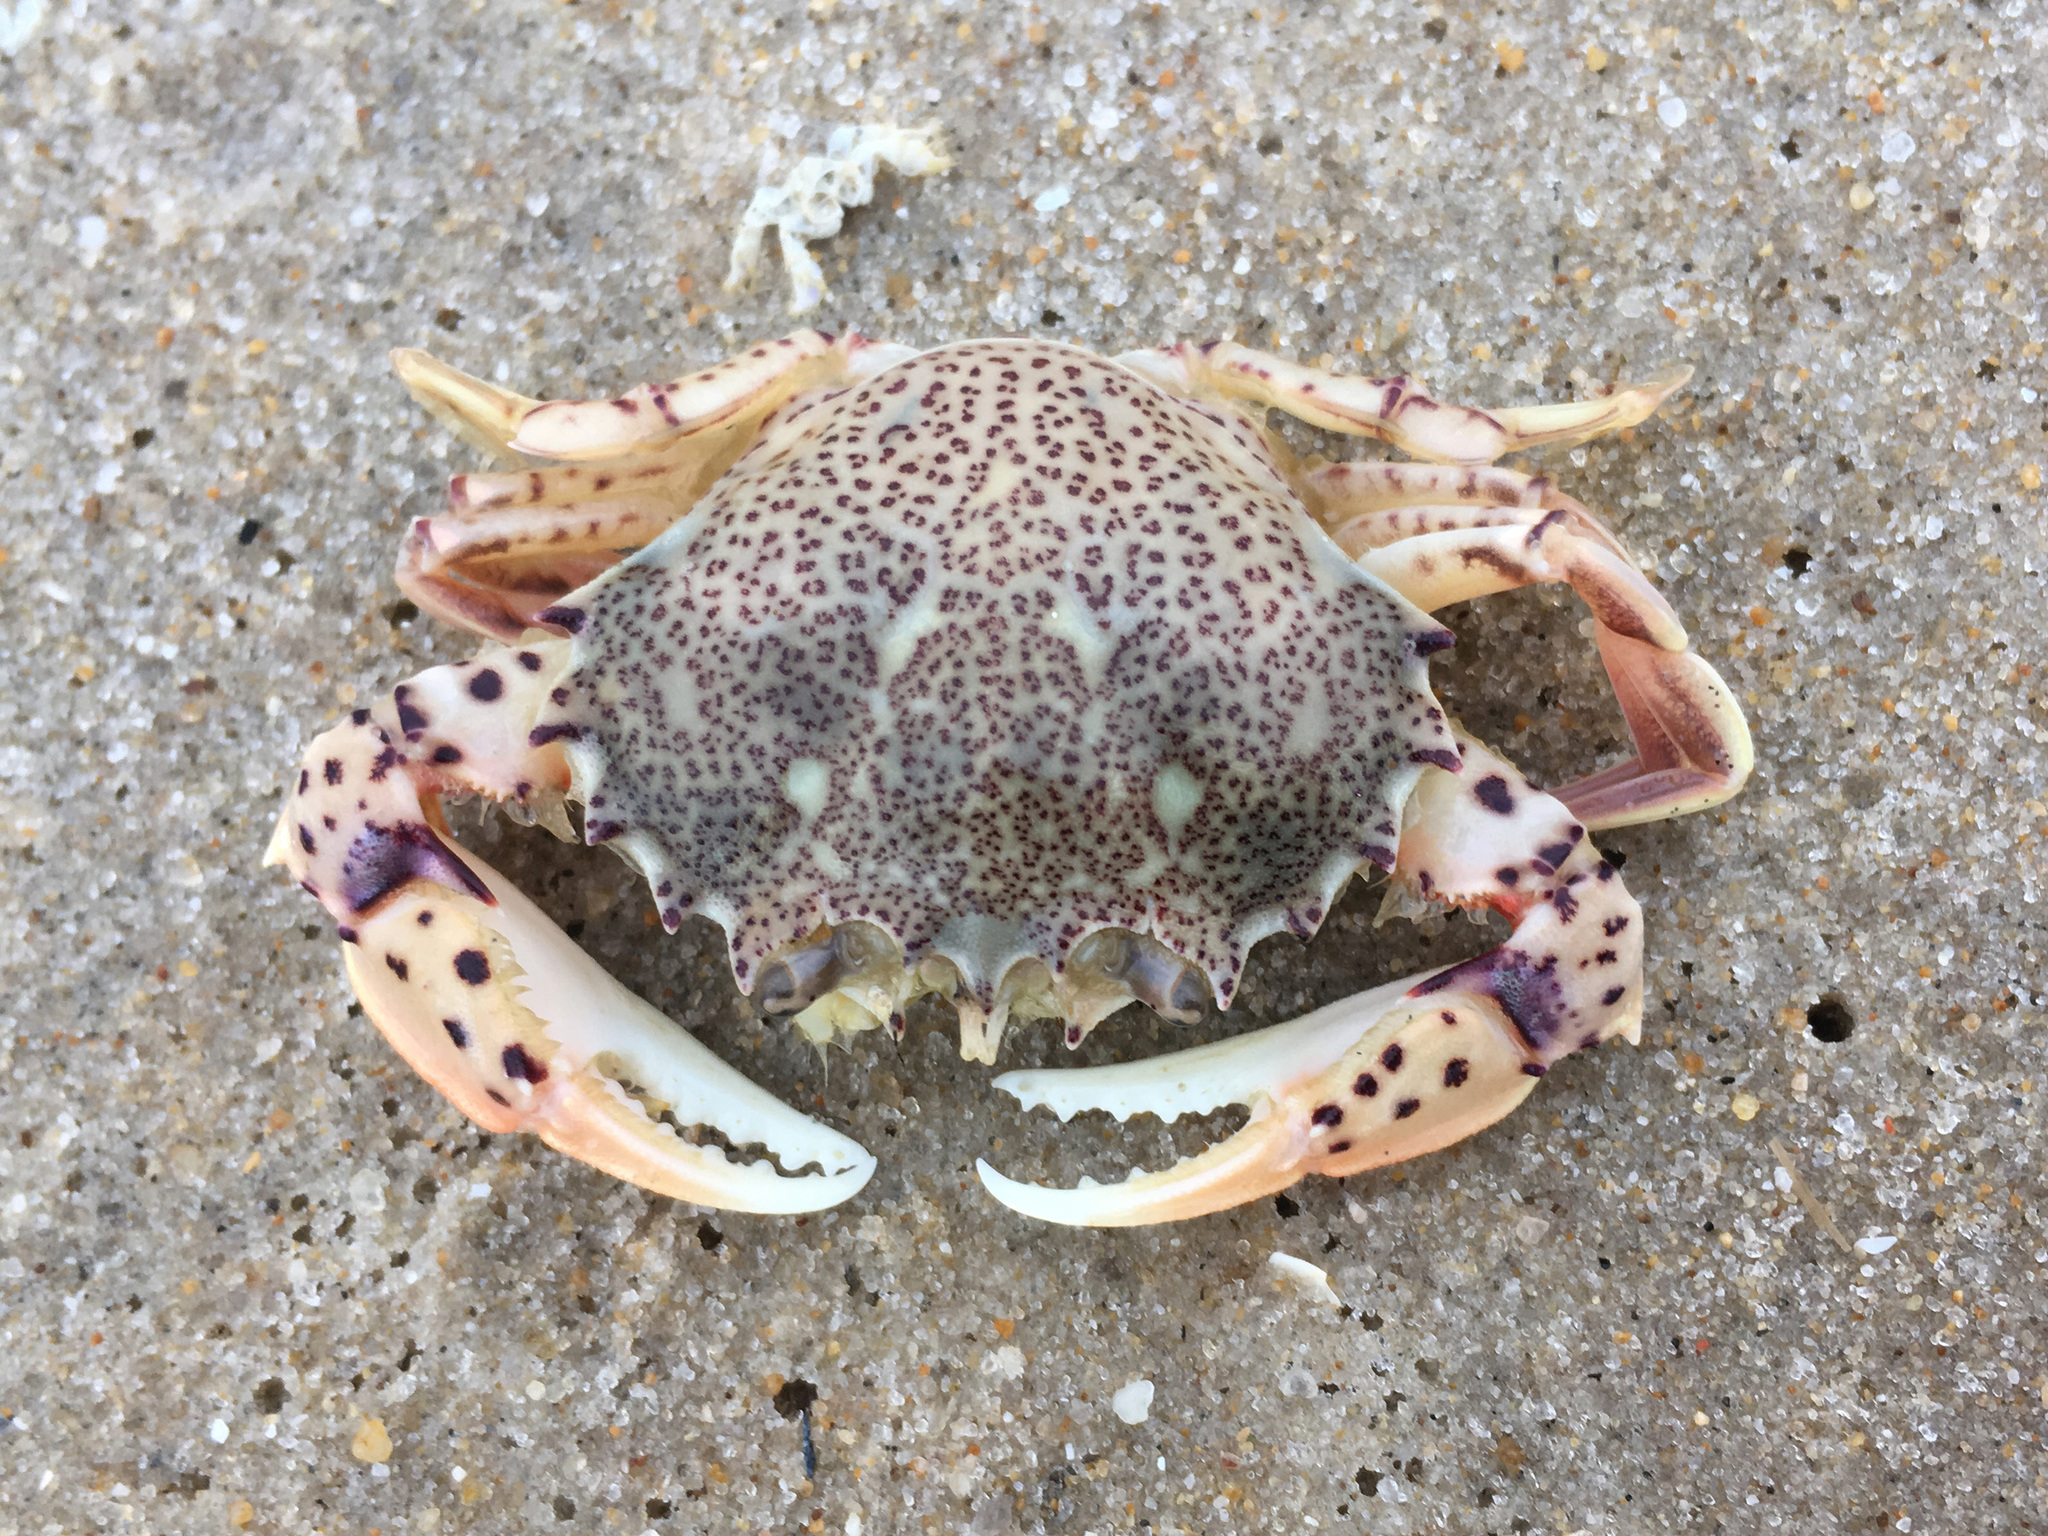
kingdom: Animalia
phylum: Arthropoda
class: Malacostraca
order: Decapoda
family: Ovalipidae
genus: Ovalipes
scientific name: Ovalipes ocellatus
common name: Lady crab
